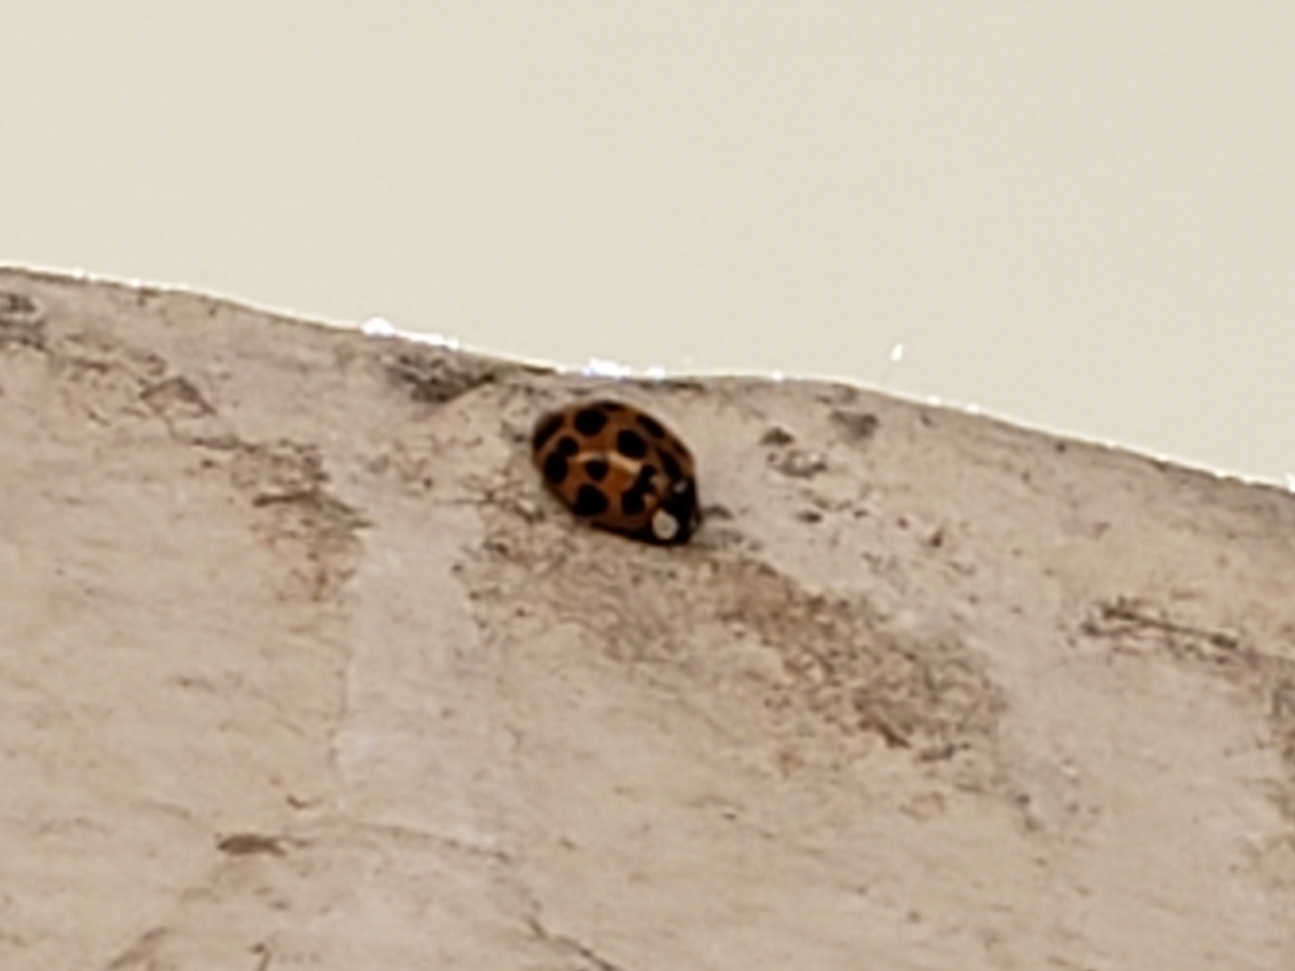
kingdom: Animalia
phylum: Arthropoda
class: Insecta
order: Coleoptera
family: Coccinellidae
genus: Harmonia
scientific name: Harmonia axyridis
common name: Harlequin ladybird
